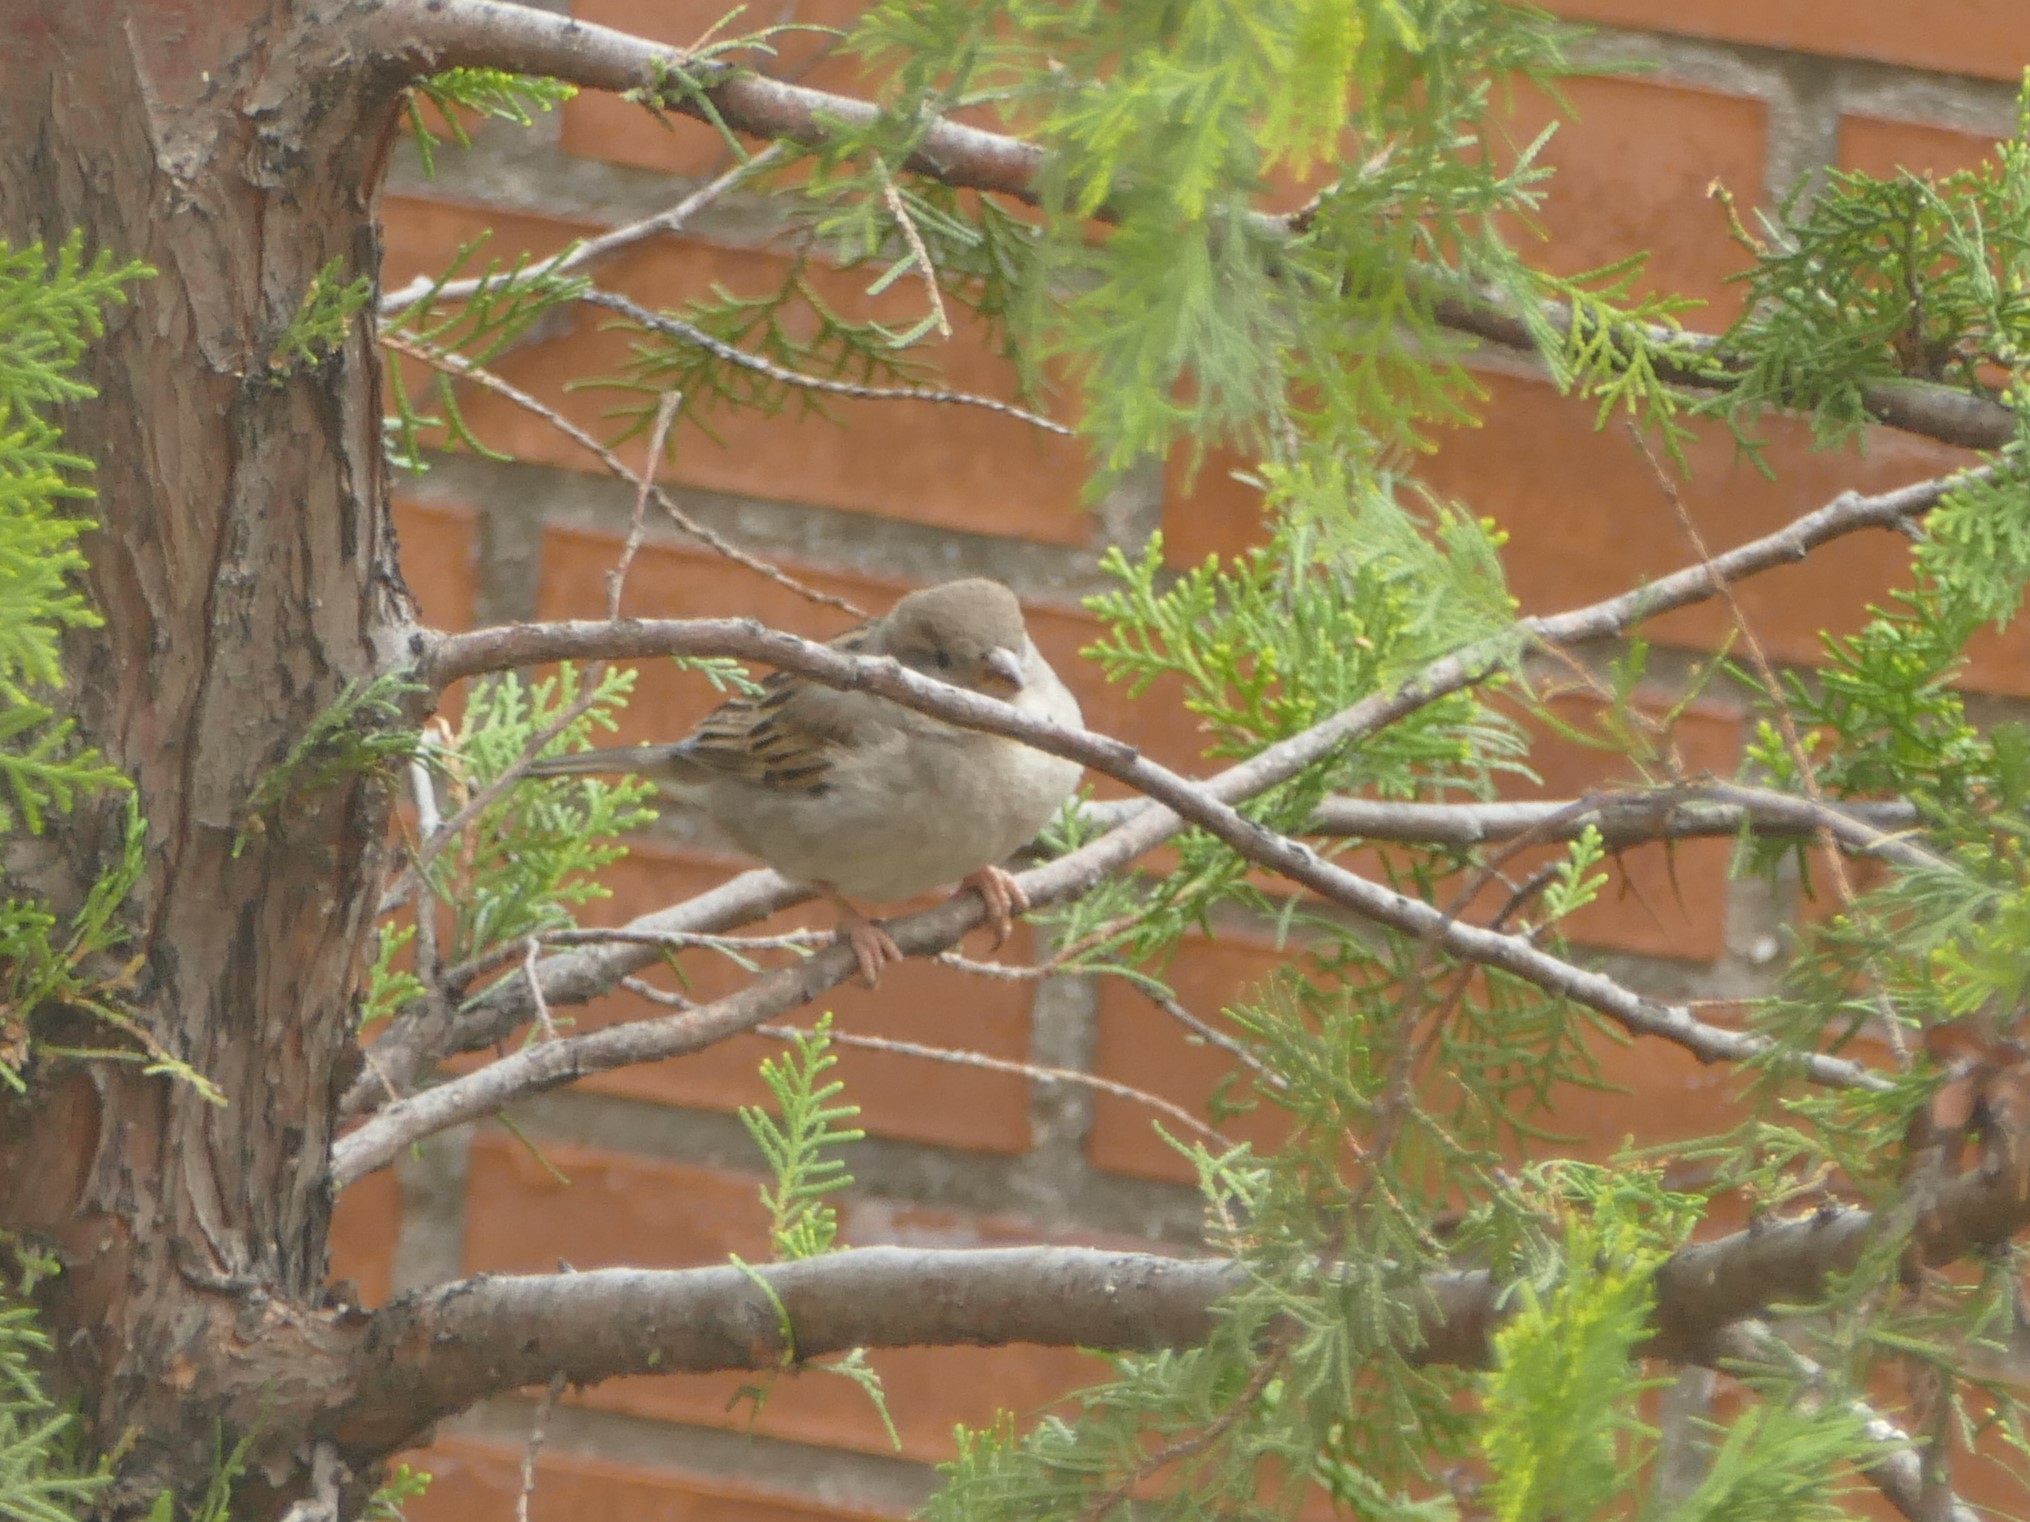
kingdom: Animalia
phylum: Chordata
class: Aves
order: Passeriformes
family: Passeridae
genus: Passer
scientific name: Passer domesticus
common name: House sparrow
